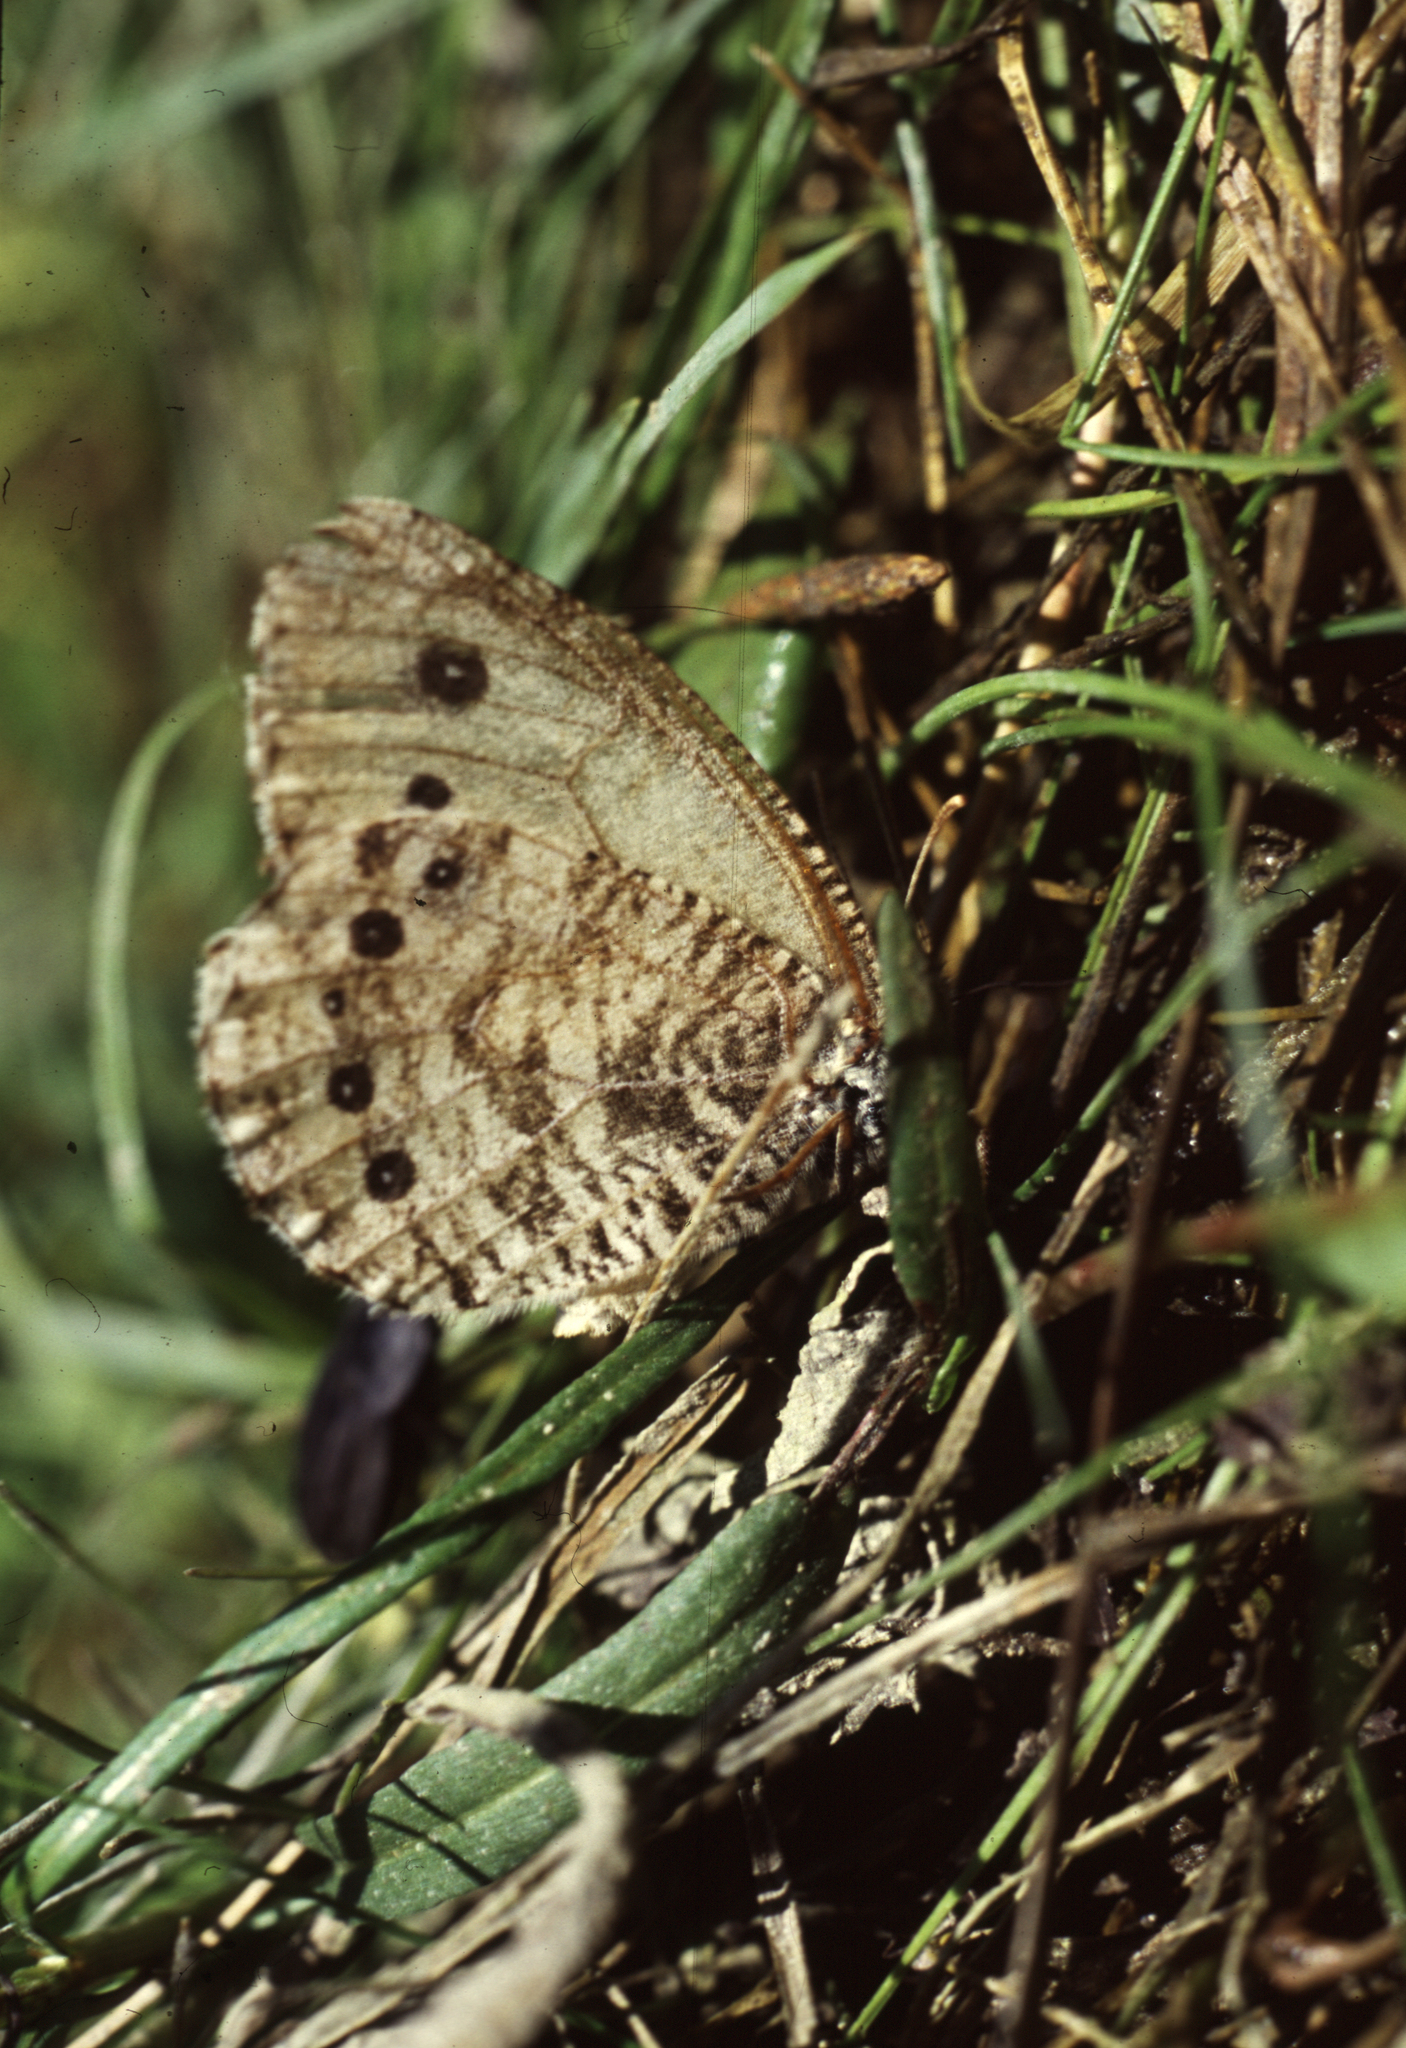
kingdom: Animalia
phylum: Arthropoda
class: Insecta
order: Lepidoptera
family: Nymphalidae
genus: Oeneis
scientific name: Oeneis diluta
